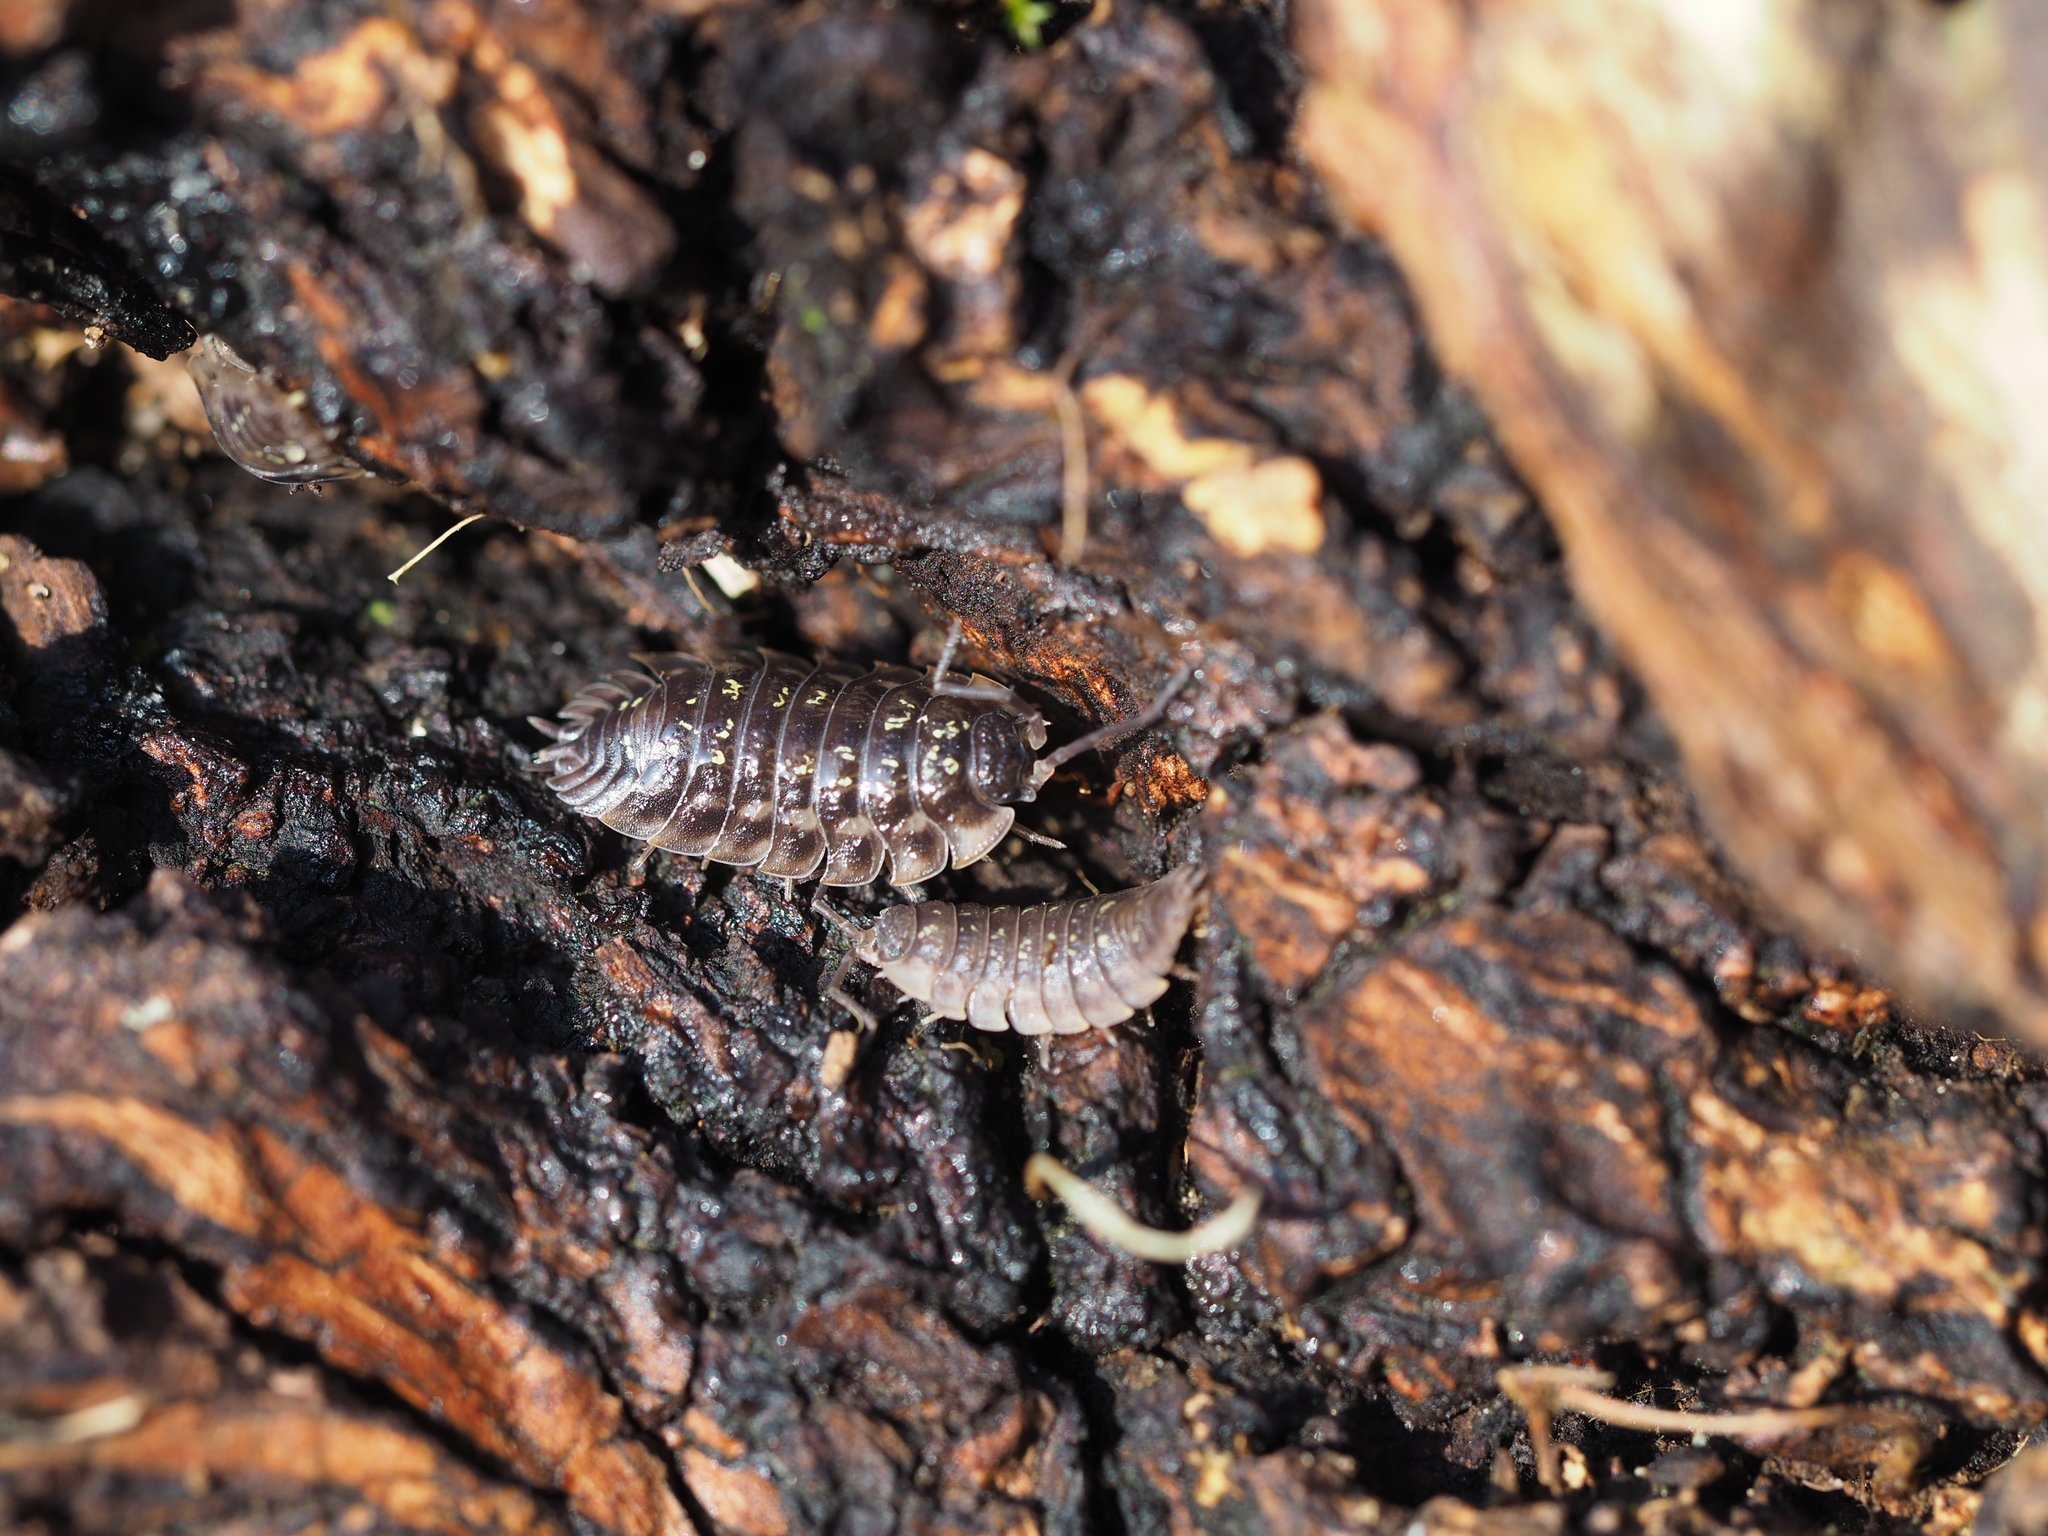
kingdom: Animalia
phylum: Arthropoda
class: Malacostraca
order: Isopoda
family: Oniscidae
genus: Oniscus
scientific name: Oniscus asellus
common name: Common shiny woodlouse
